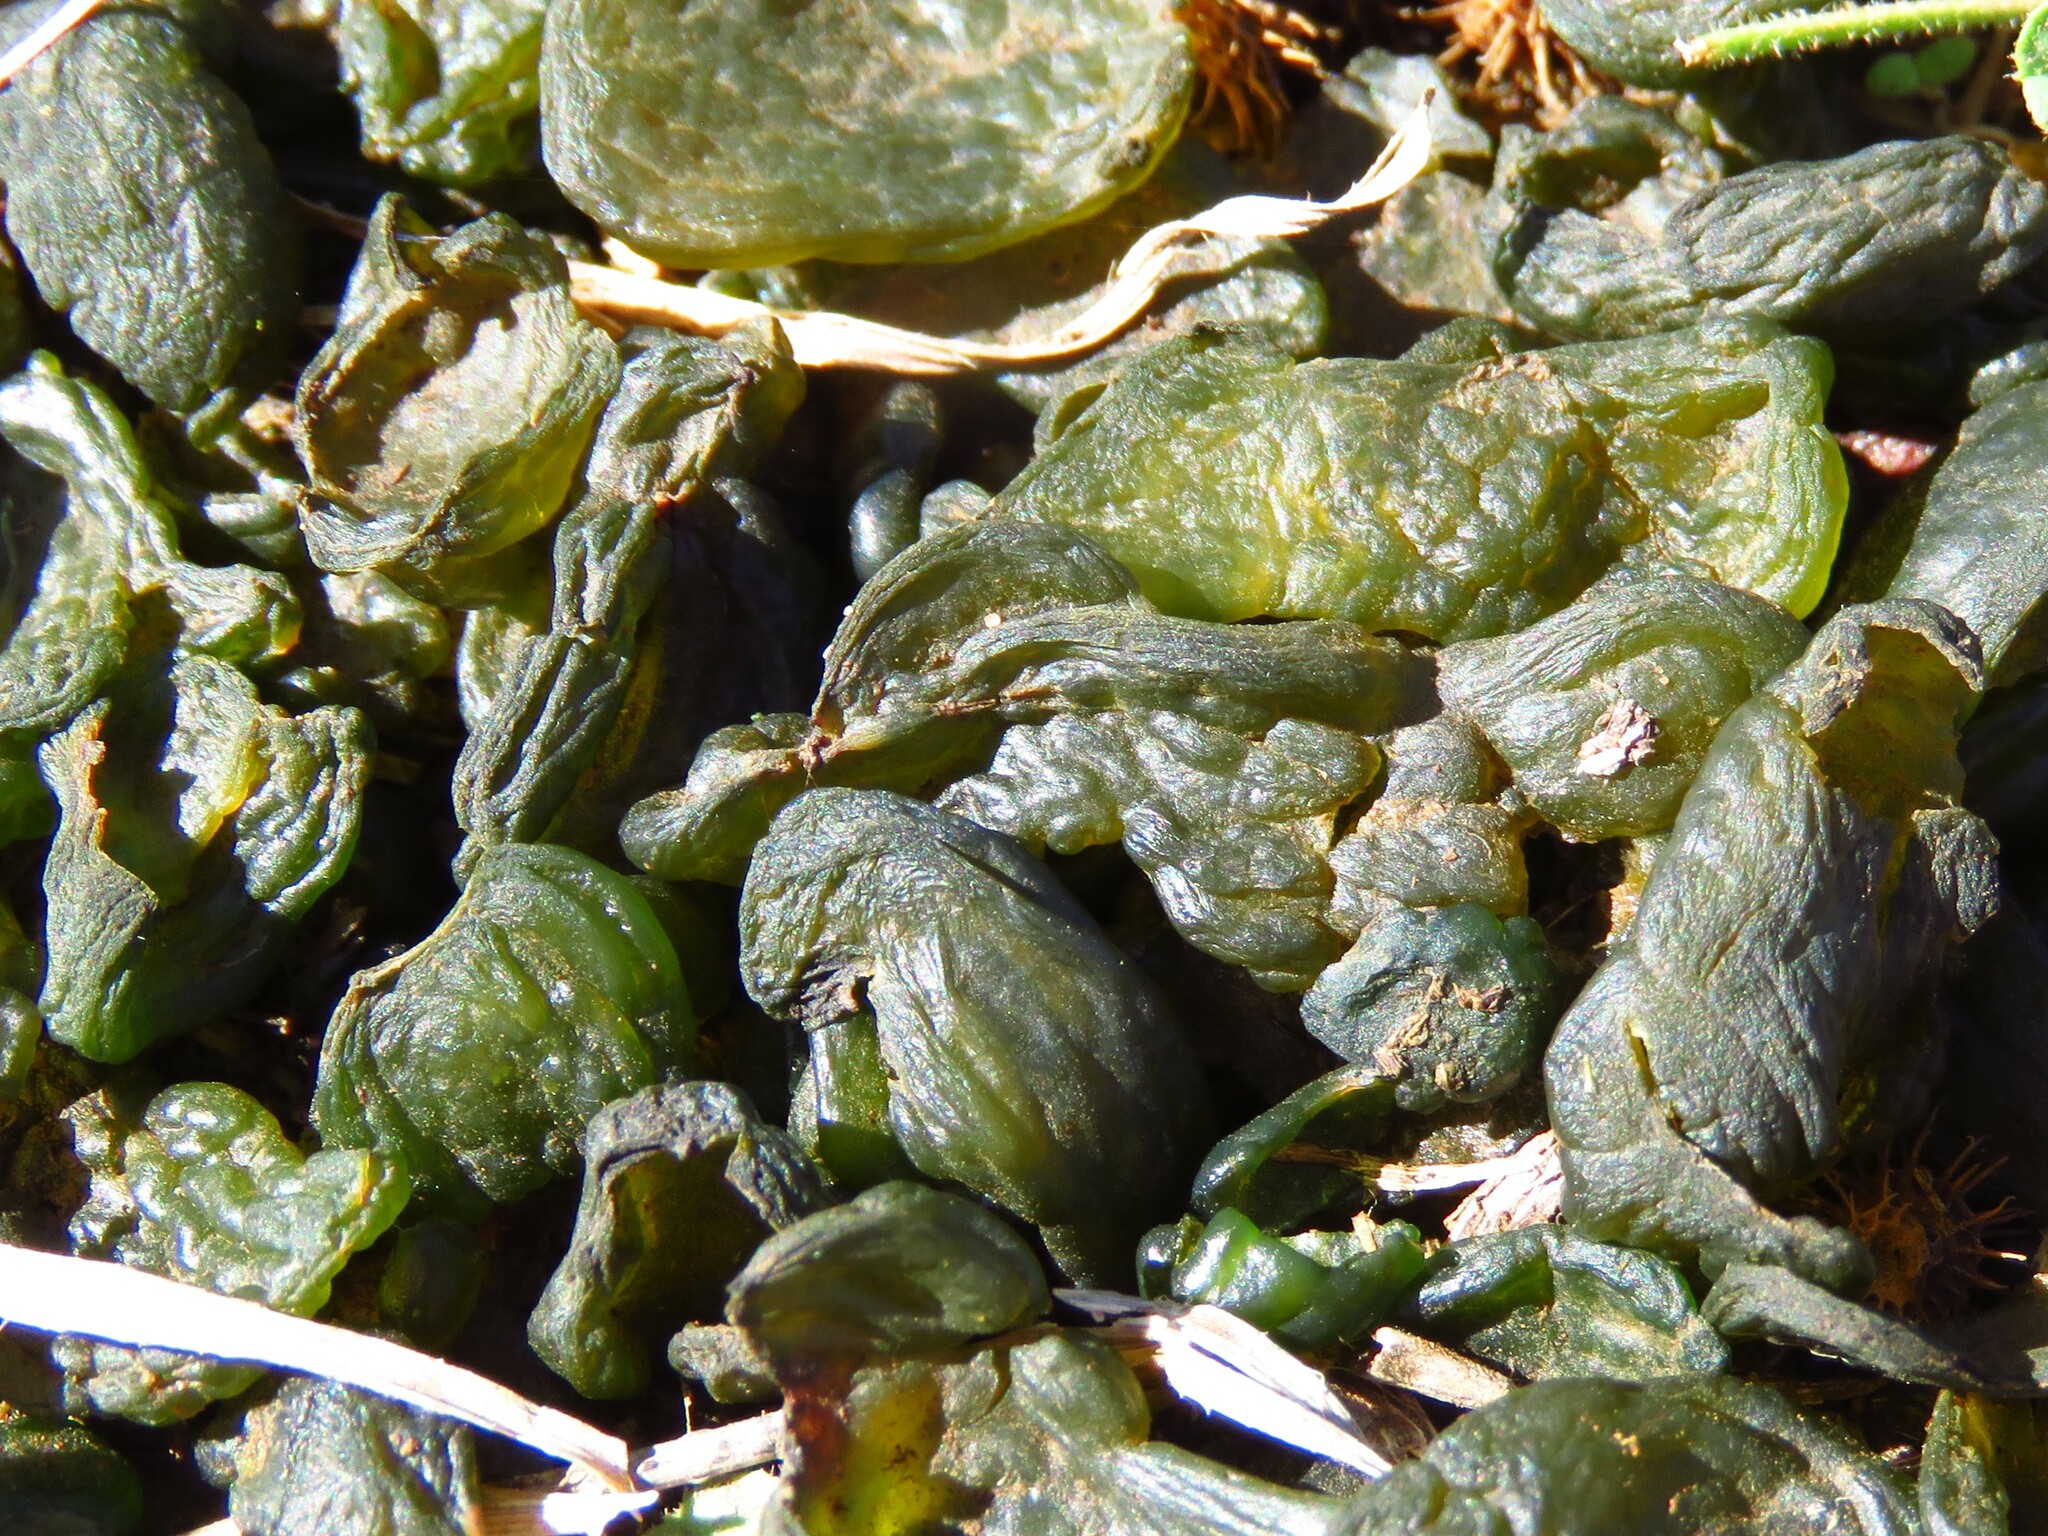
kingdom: Bacteria
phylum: Cyanobacteria
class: Cyanobacteriia
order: Cyanobacteriales
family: Nostocaceae
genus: Nostoc
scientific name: Nostoc commune
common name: Star jelly
